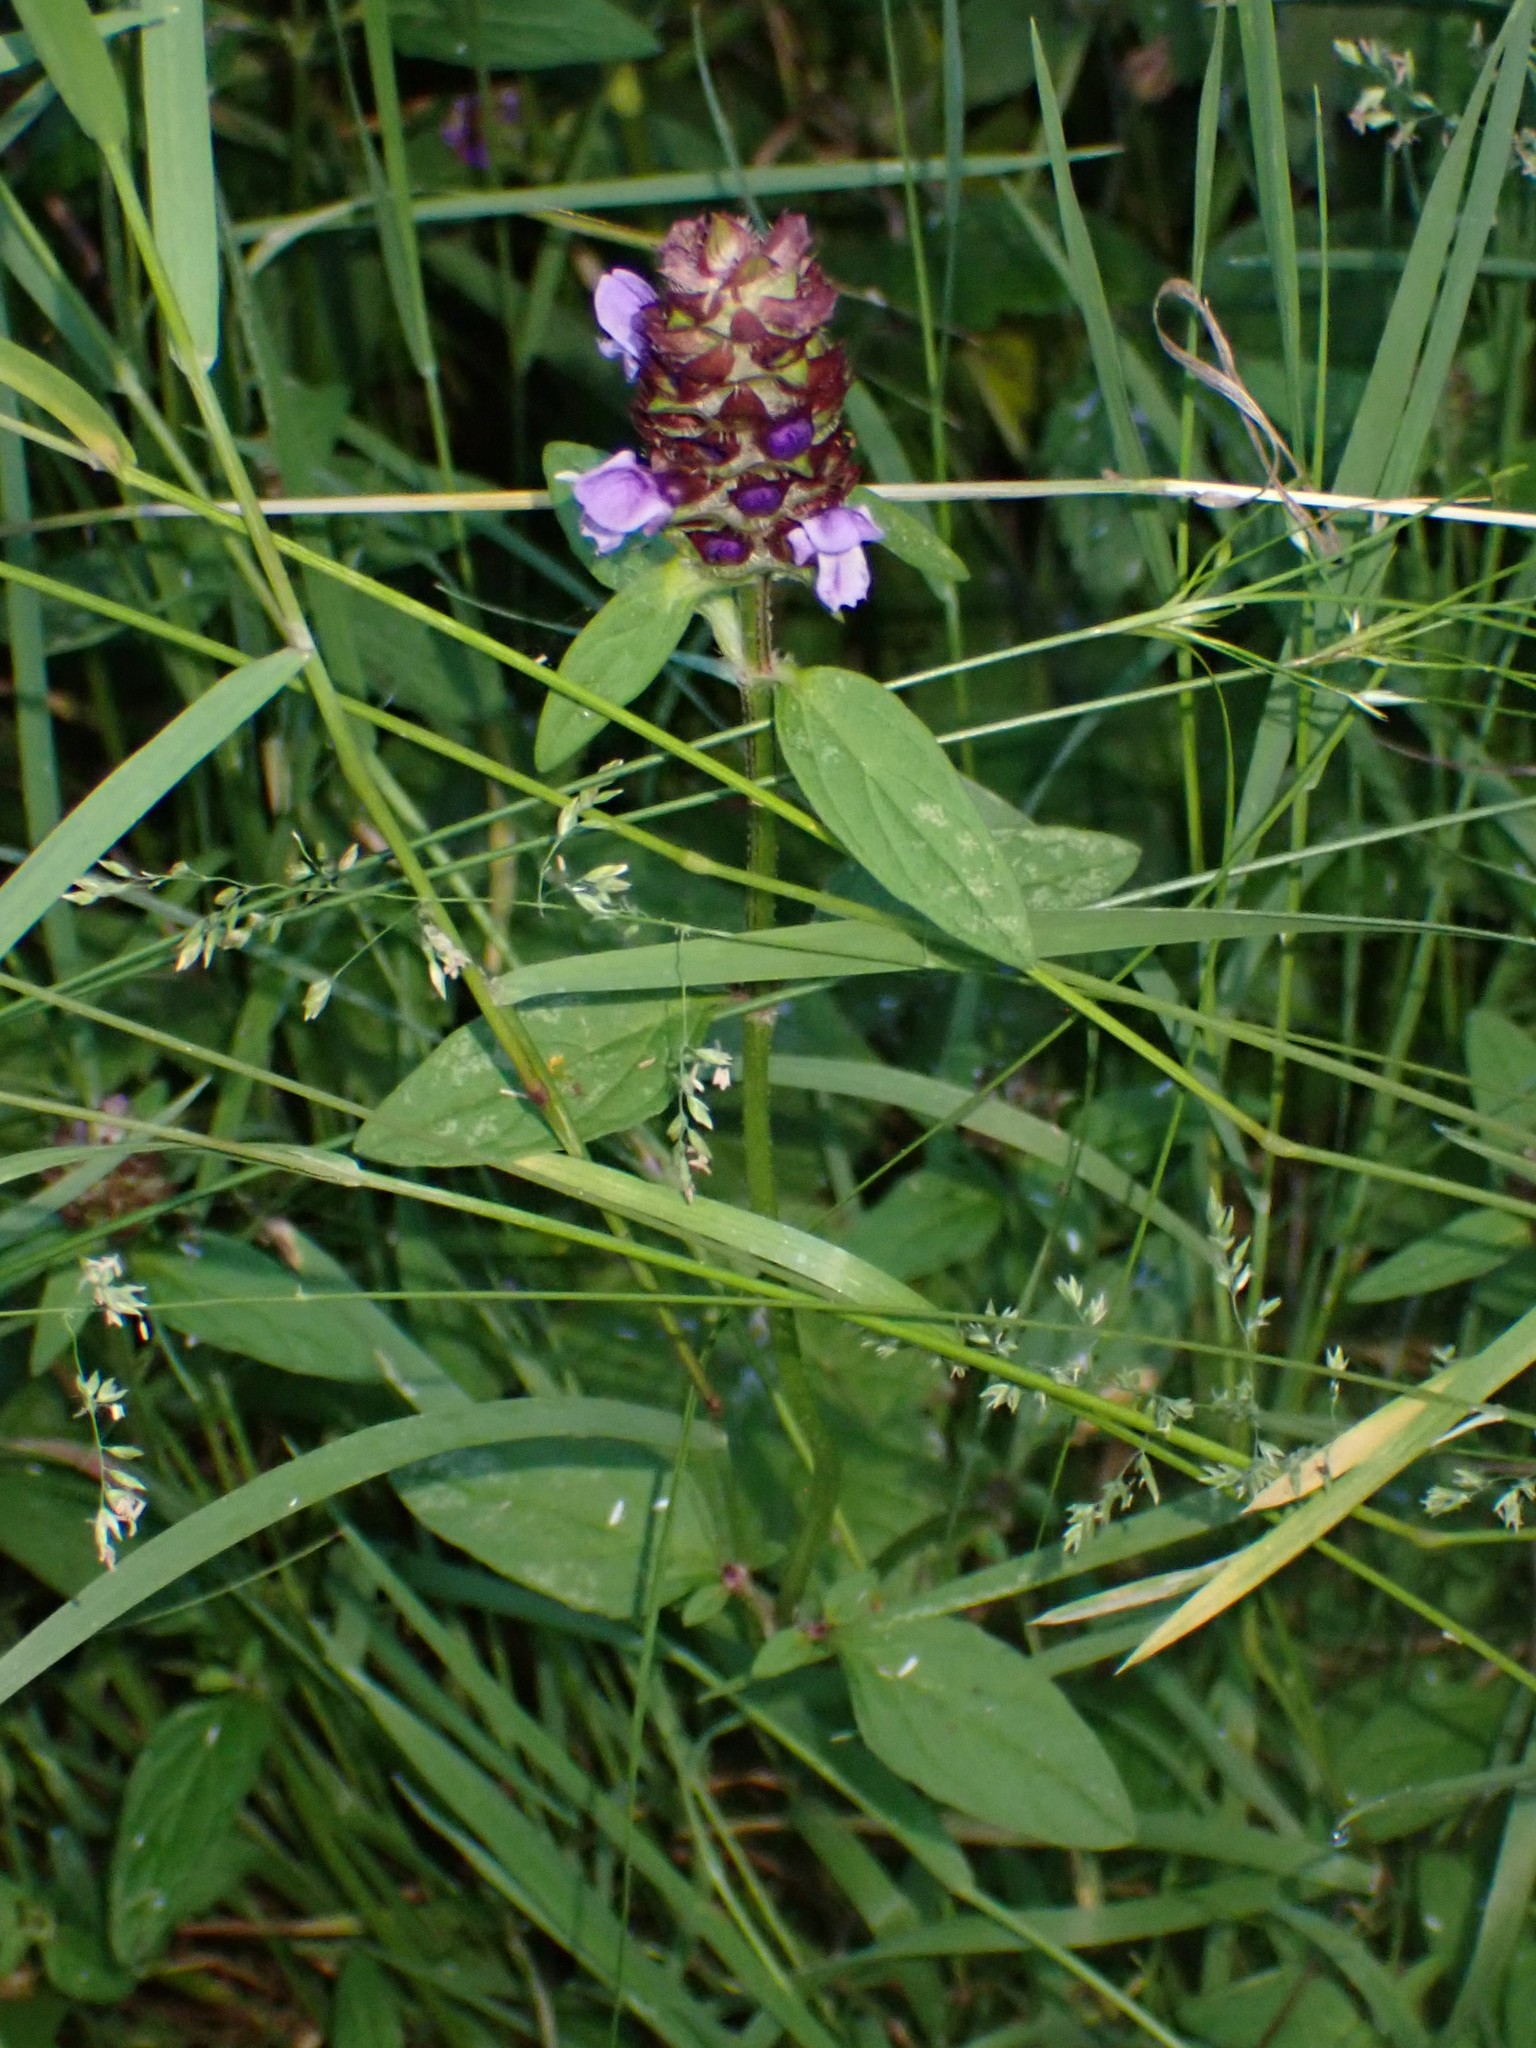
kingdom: Plantae
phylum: Tracheophyta
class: Magnoliopsida
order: Lamiales
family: Lamiaceae
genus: Prunella
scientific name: Prunella vulgaris
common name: Heal-all
